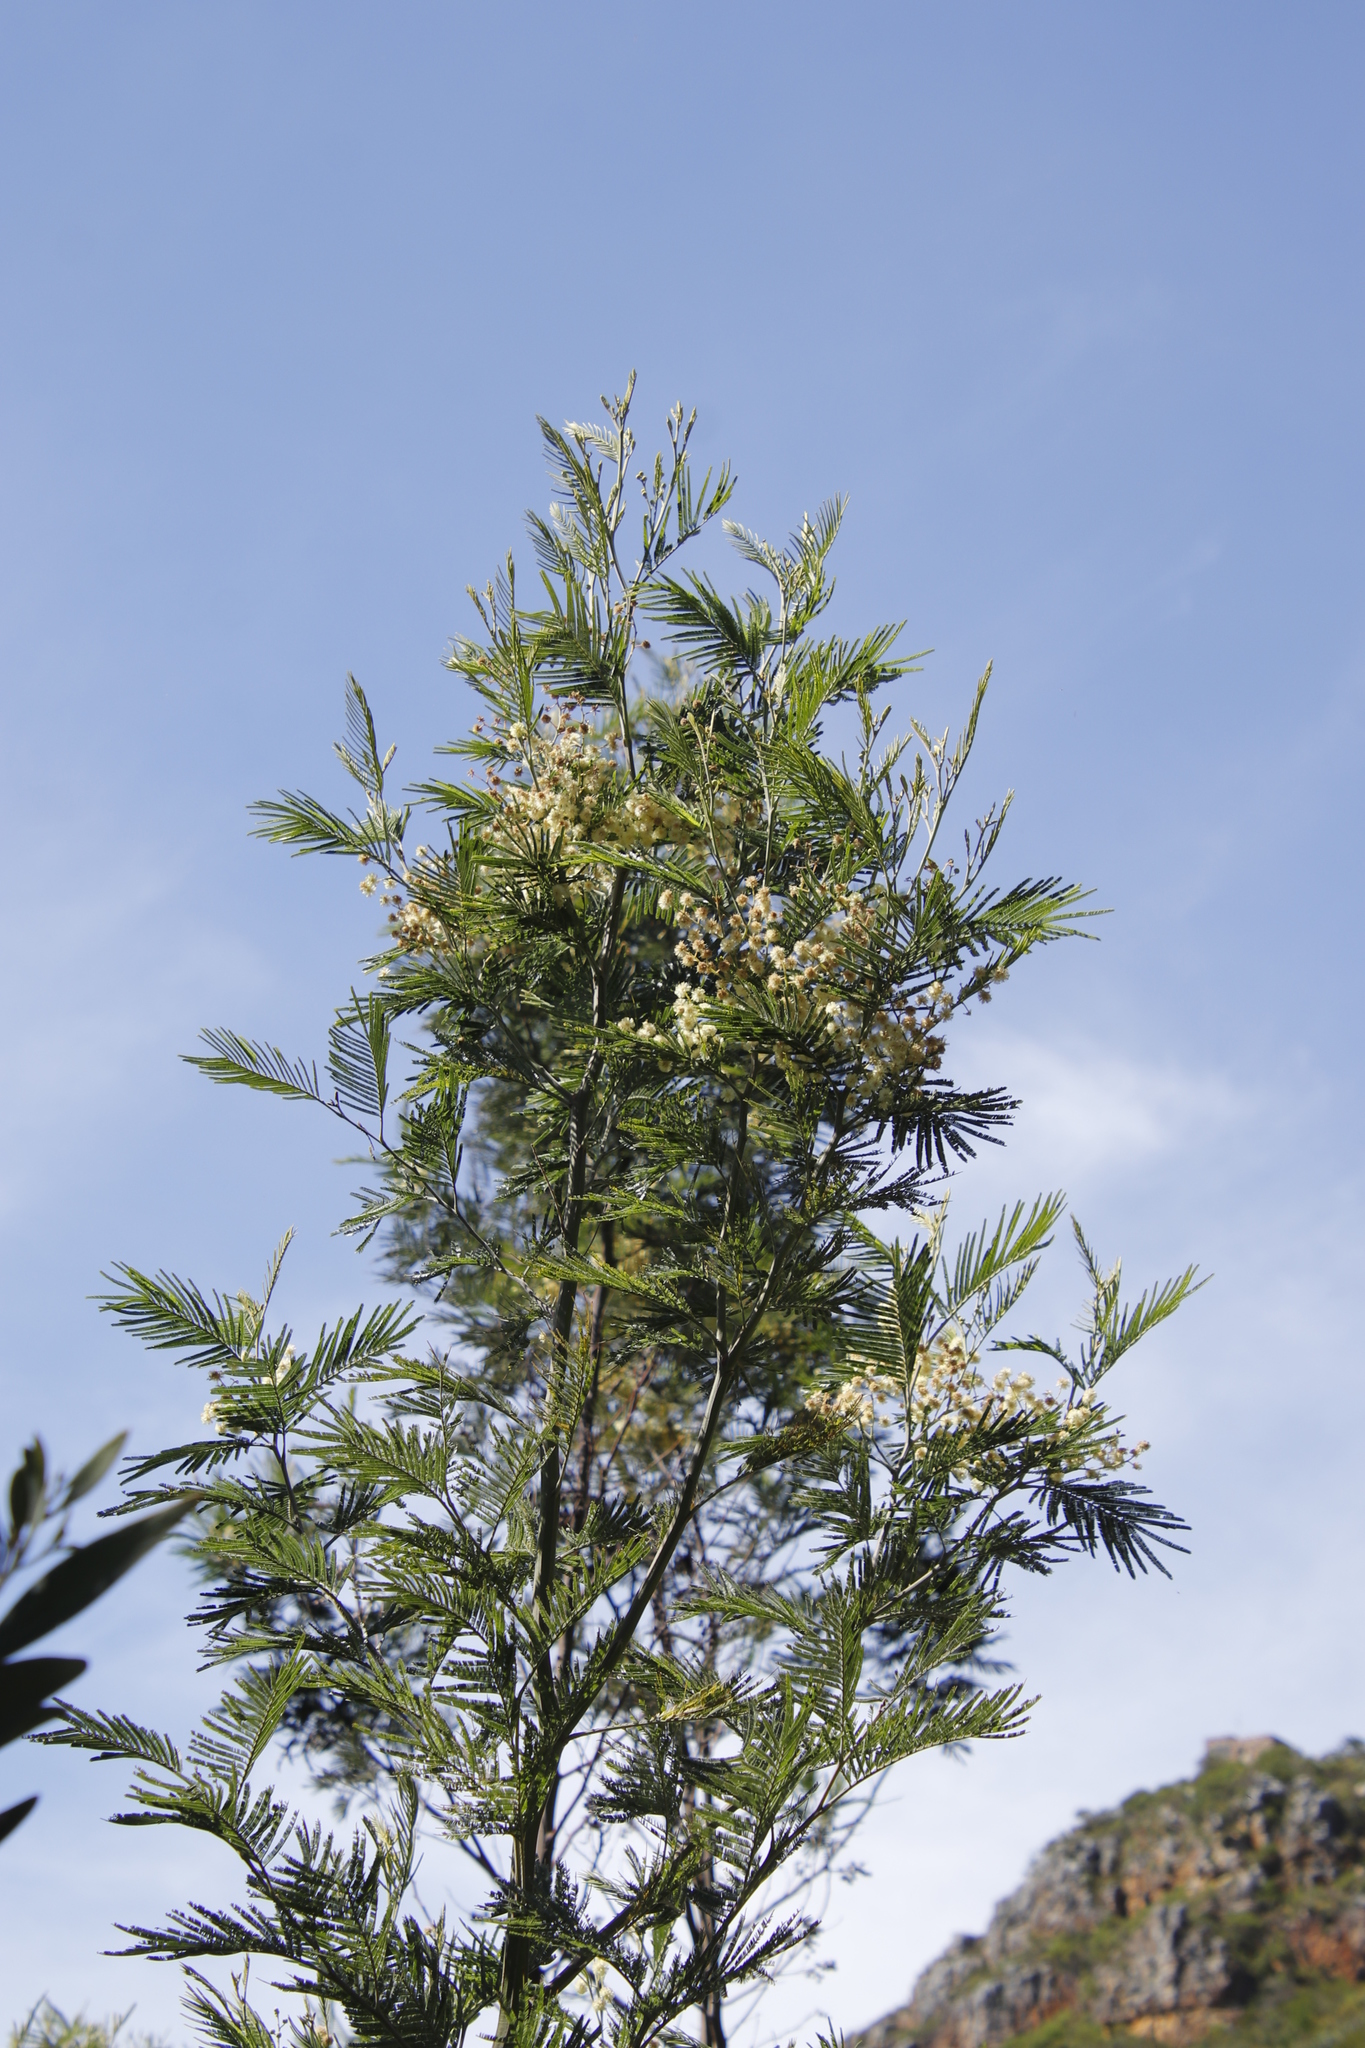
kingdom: Plantae
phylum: Tracheophyta
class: Magnoliopsida
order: Fabales
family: Fabaceae
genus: Acacia
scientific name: Acacia mearnsii
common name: Black wattle
